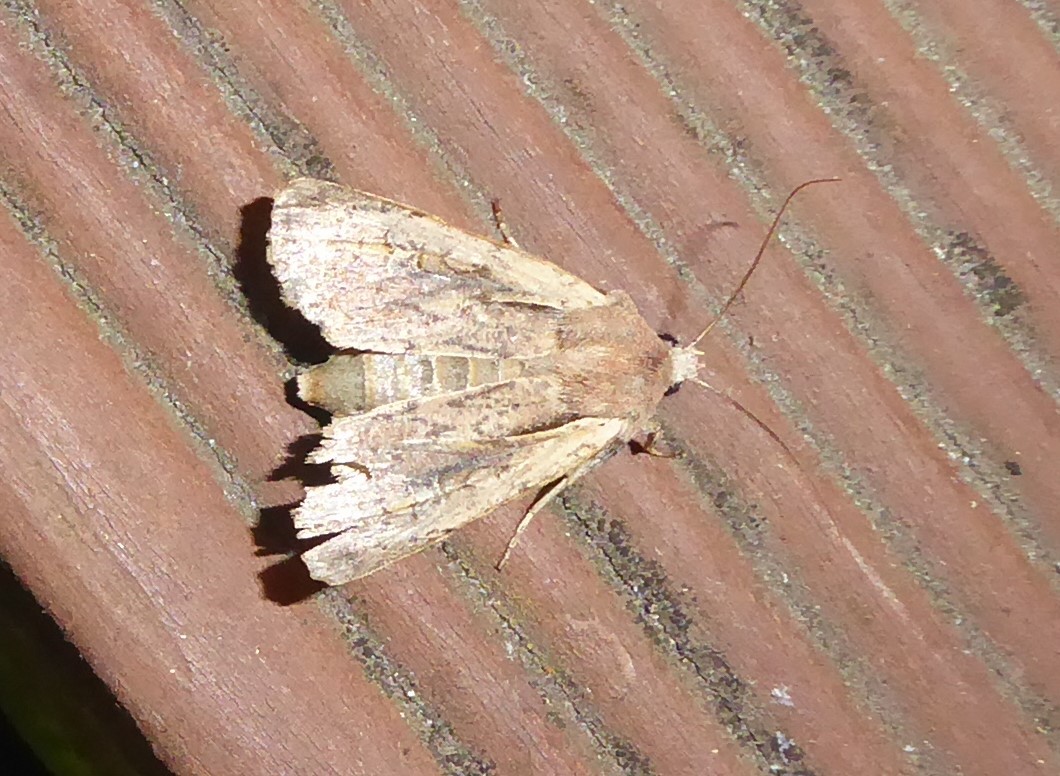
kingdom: Animalia
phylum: Arthropoda
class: Insecta
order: Lepidoptera
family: Noctuidae
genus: Ichneutica
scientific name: Ichneutica atristriga
